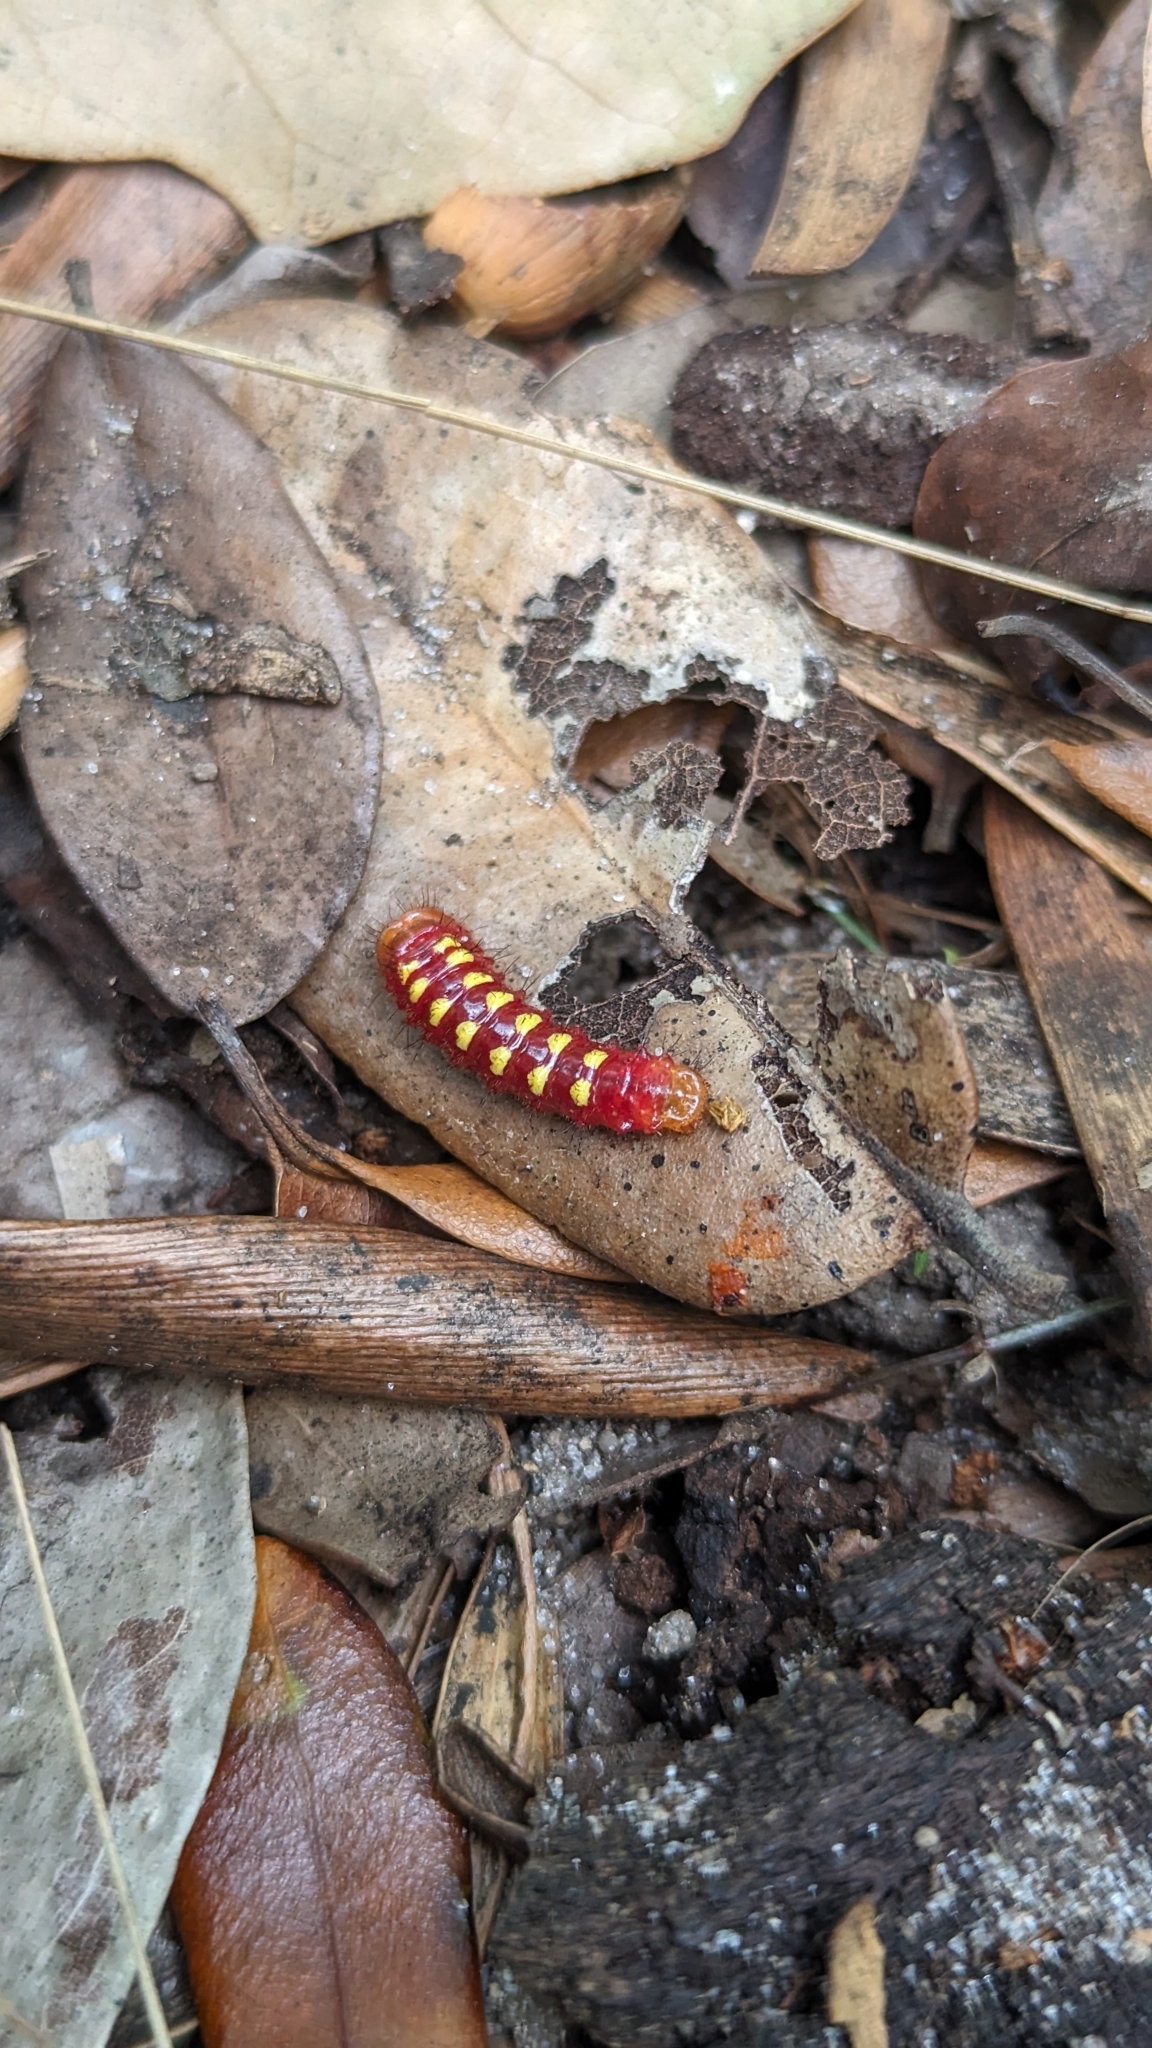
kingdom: Animalia
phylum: Arthropoda
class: Insecta
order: Lepidoptera
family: Lycaenidae
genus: Eumaeus
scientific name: Eumaeus atala
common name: Atala
